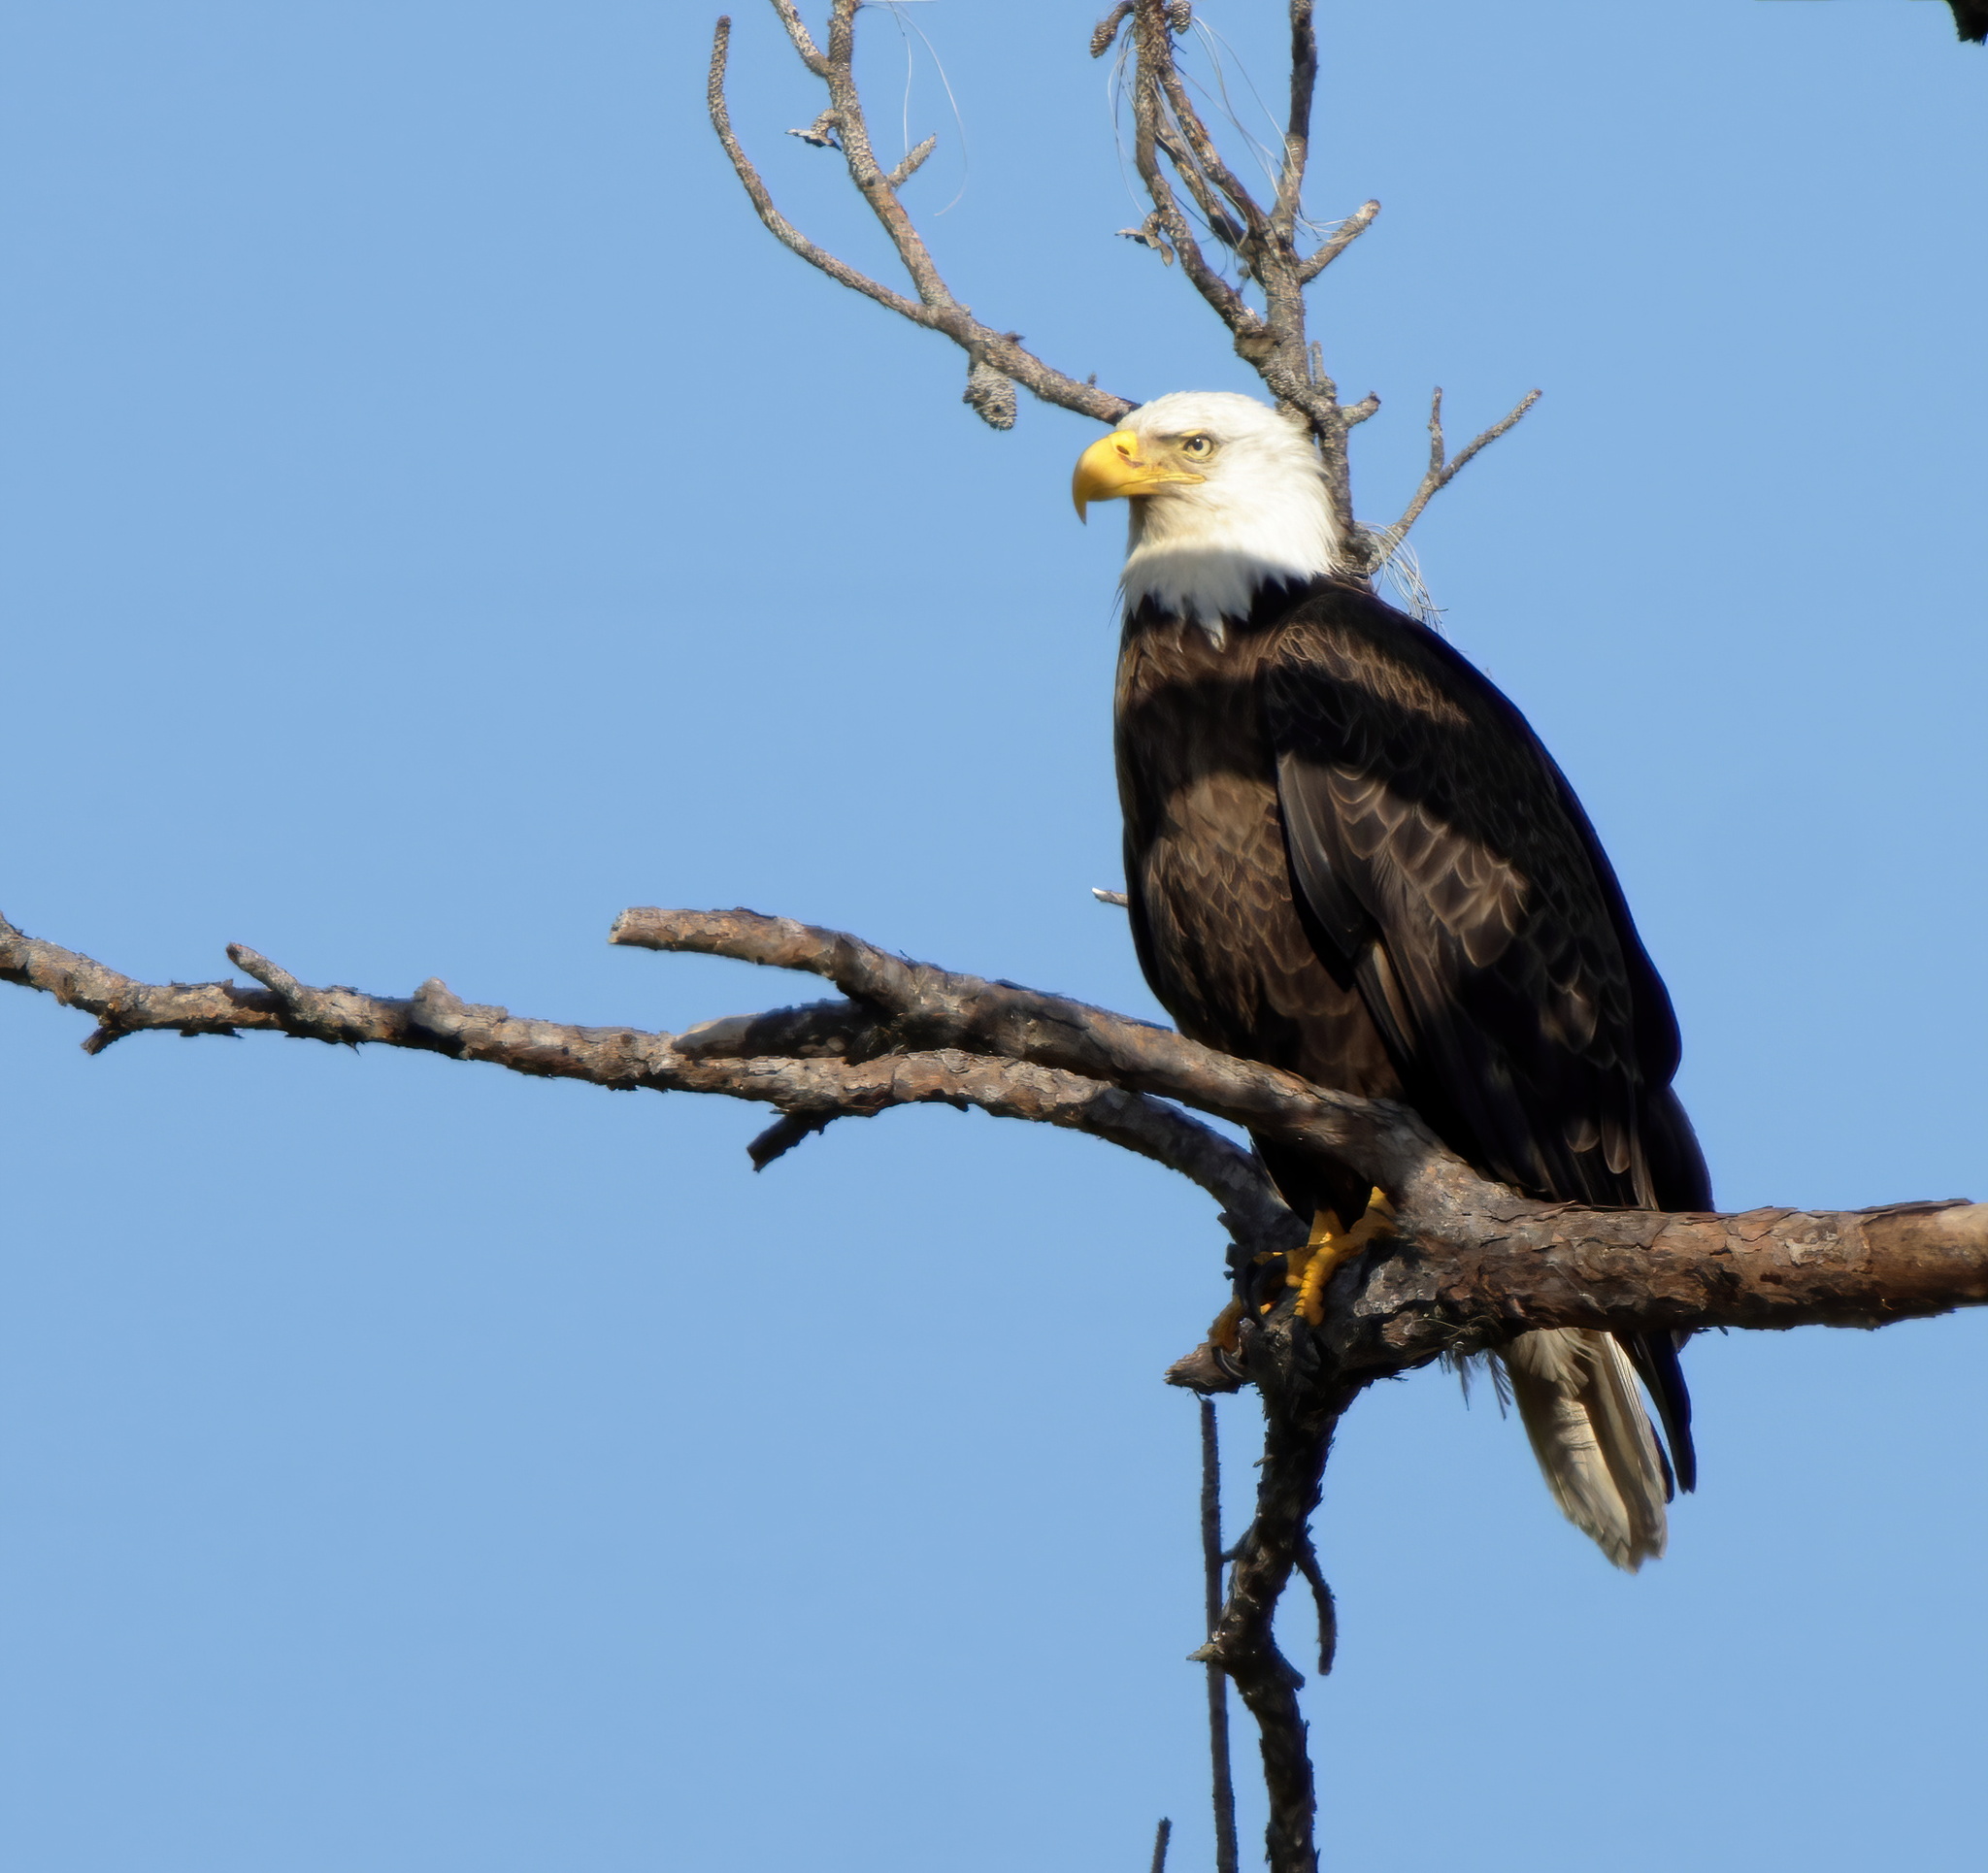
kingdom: Animalia
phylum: Chordata
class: Aves
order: Accipitriformes
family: Accipitridae
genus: Haliaeetus
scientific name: Haliaeetus leucocephalus
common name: Bald eagle
